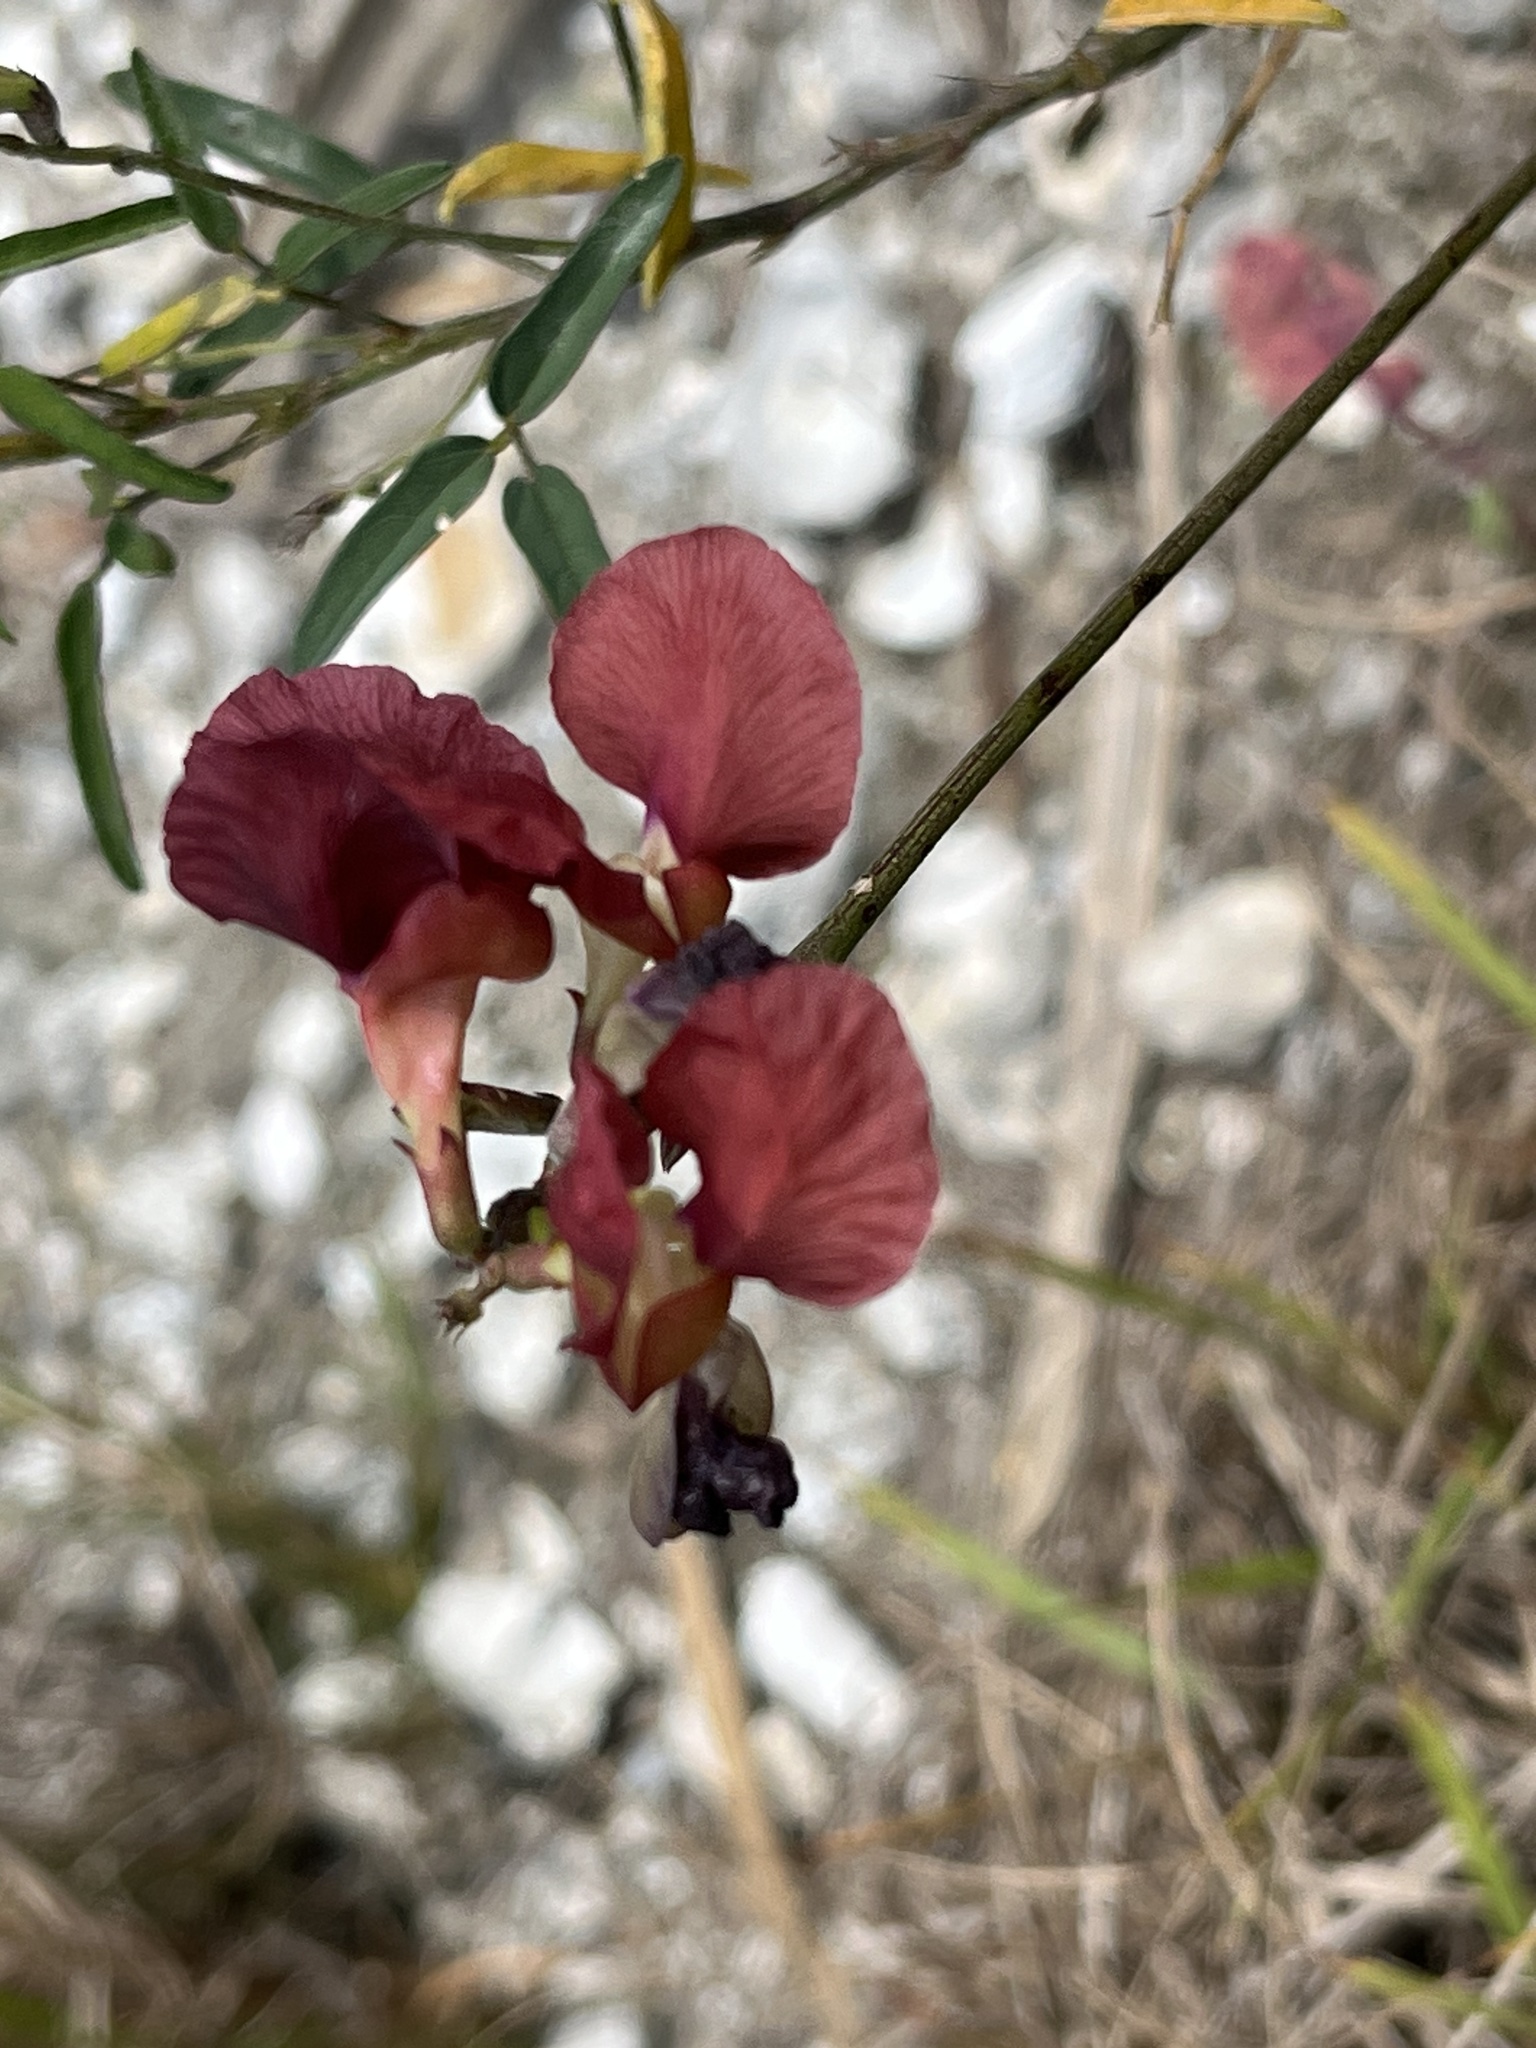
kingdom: Plantae
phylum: Tracheophyta
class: Magnoliopsida
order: Fabales
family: Fabaceae
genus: Macroptilium
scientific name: Macroptilium lathyroides
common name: Wild bushbean
